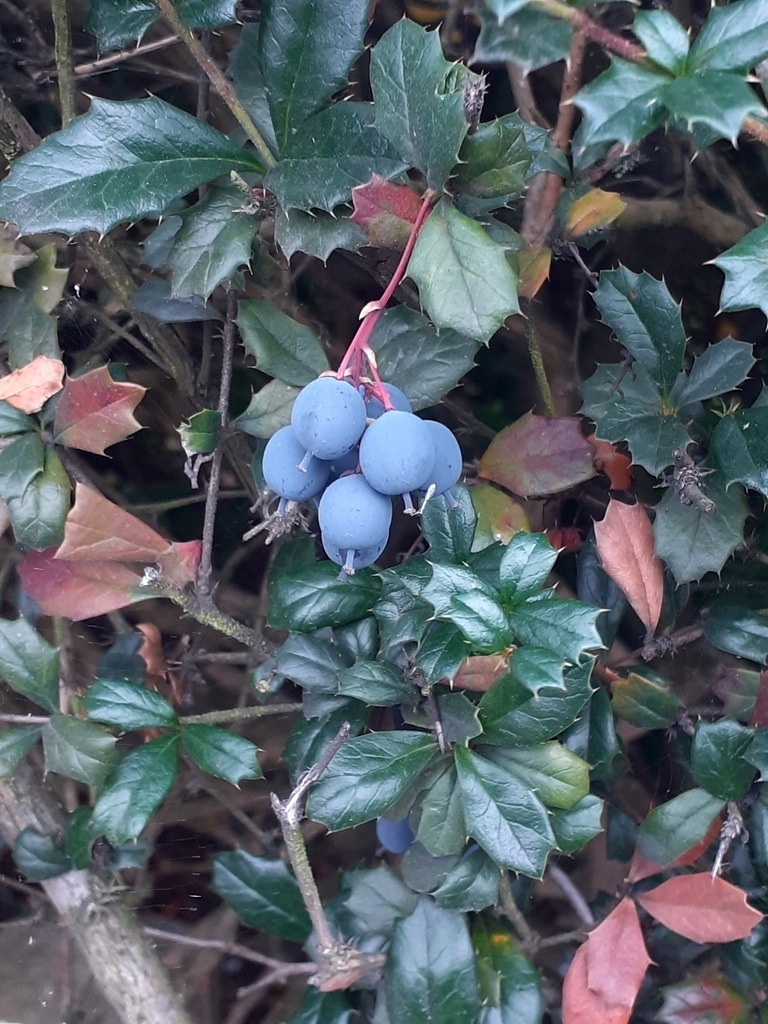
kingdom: Plantae
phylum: Tracheophyta
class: Magnoliopsida
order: Ranunculales
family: Berberidaceae
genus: Berberis
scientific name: Berberis darwinii
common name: Darwin's barberry
